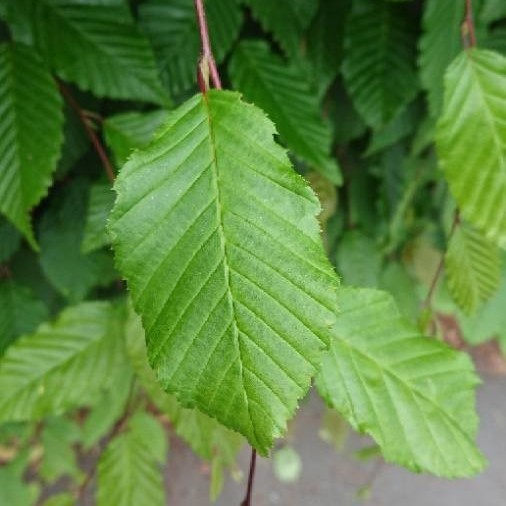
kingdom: Plantae
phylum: Tracheophyta
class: Magnoliopsida
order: Fagales
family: Betulaceae
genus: Carpinus
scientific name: Carpinus betulus
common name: Hornbeam
